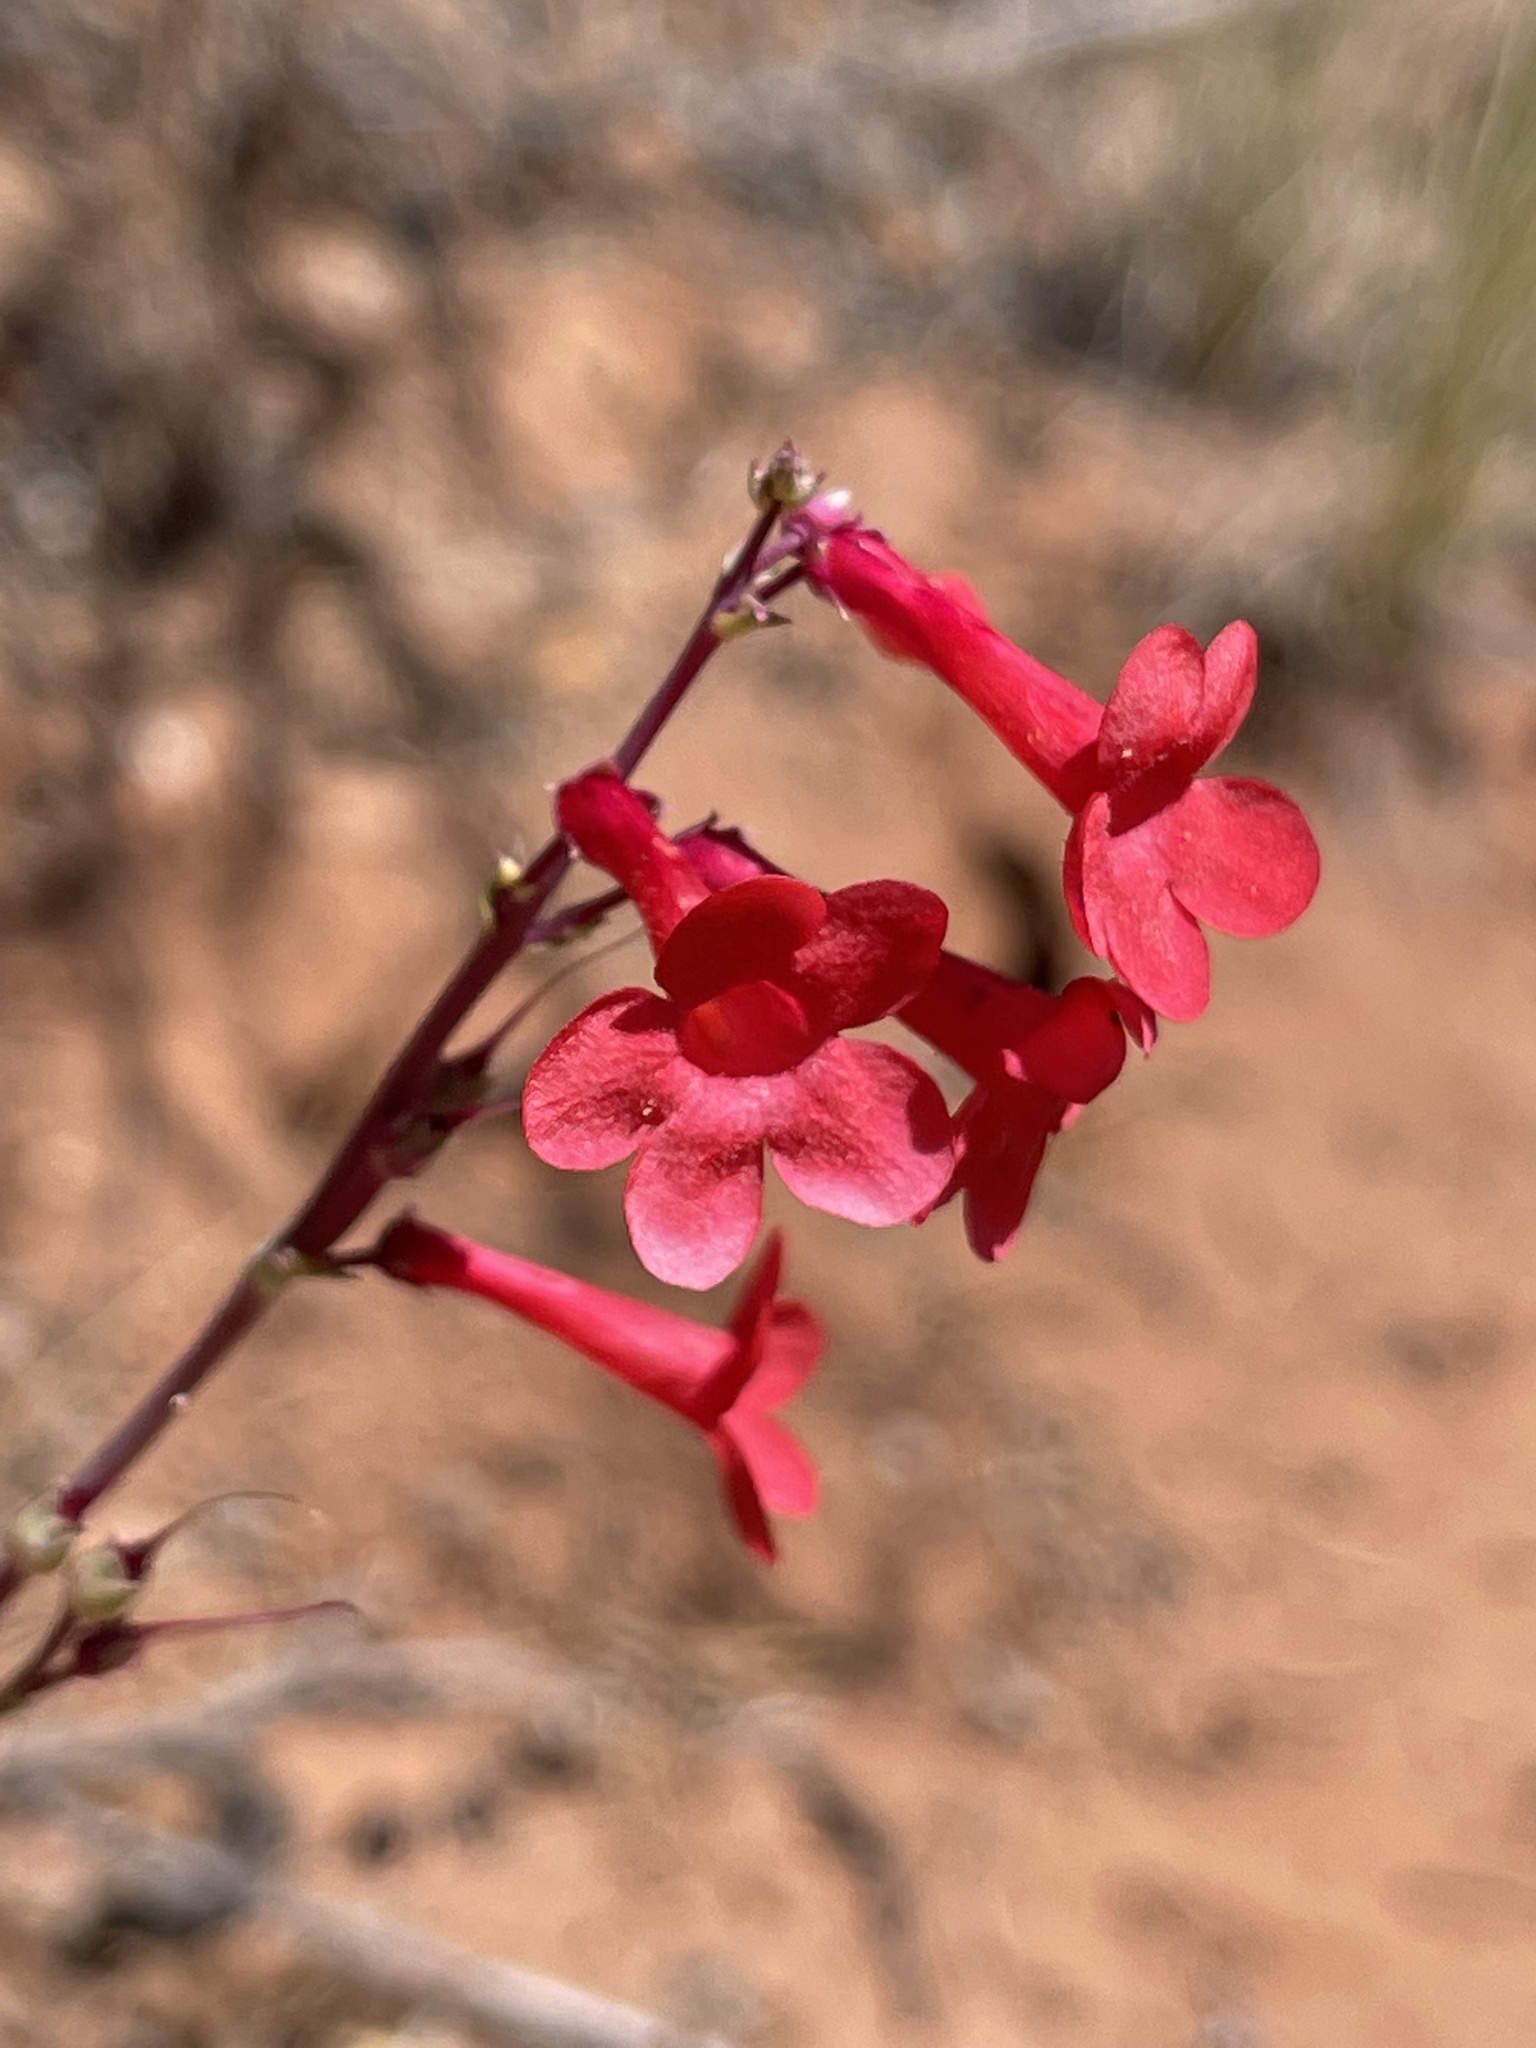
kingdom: Plantae
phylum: Tracheophyta
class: Magnoliopsida
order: Lamiales
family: Plantaginaceae
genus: Penstemon
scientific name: Penstemon utahensis
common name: Utah penstemon
